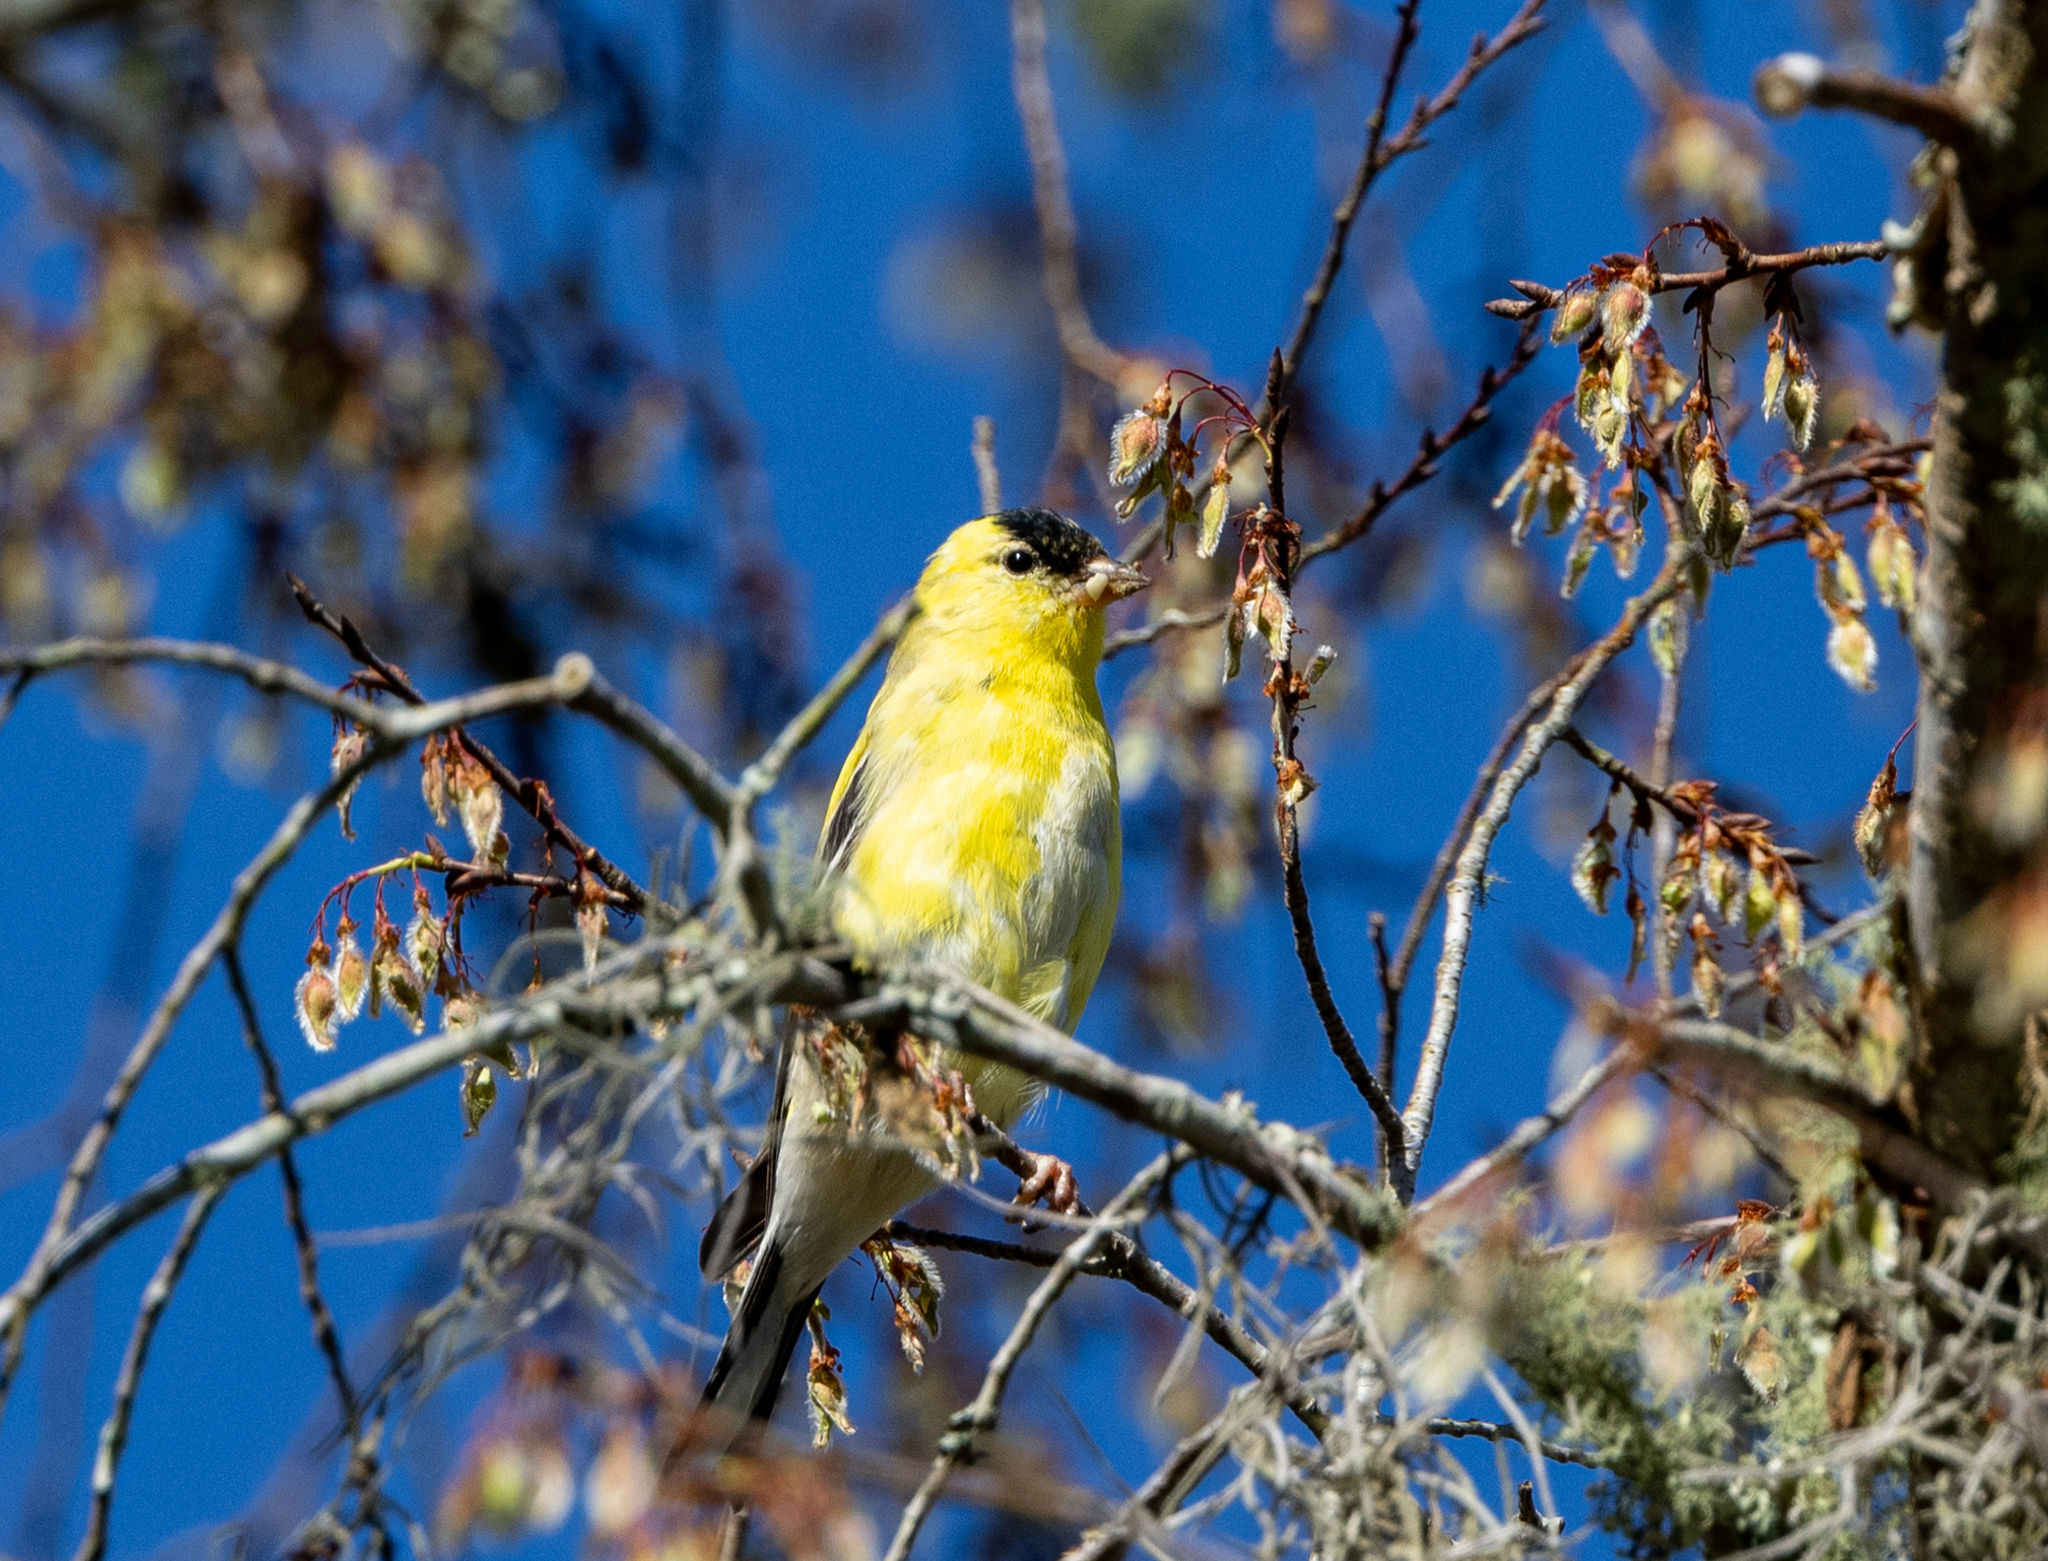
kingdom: Animalia
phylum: Chordata
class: Aves
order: Passeriformes
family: Fringillidae
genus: Spinus
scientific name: Spinus tristis
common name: American goldfinch
